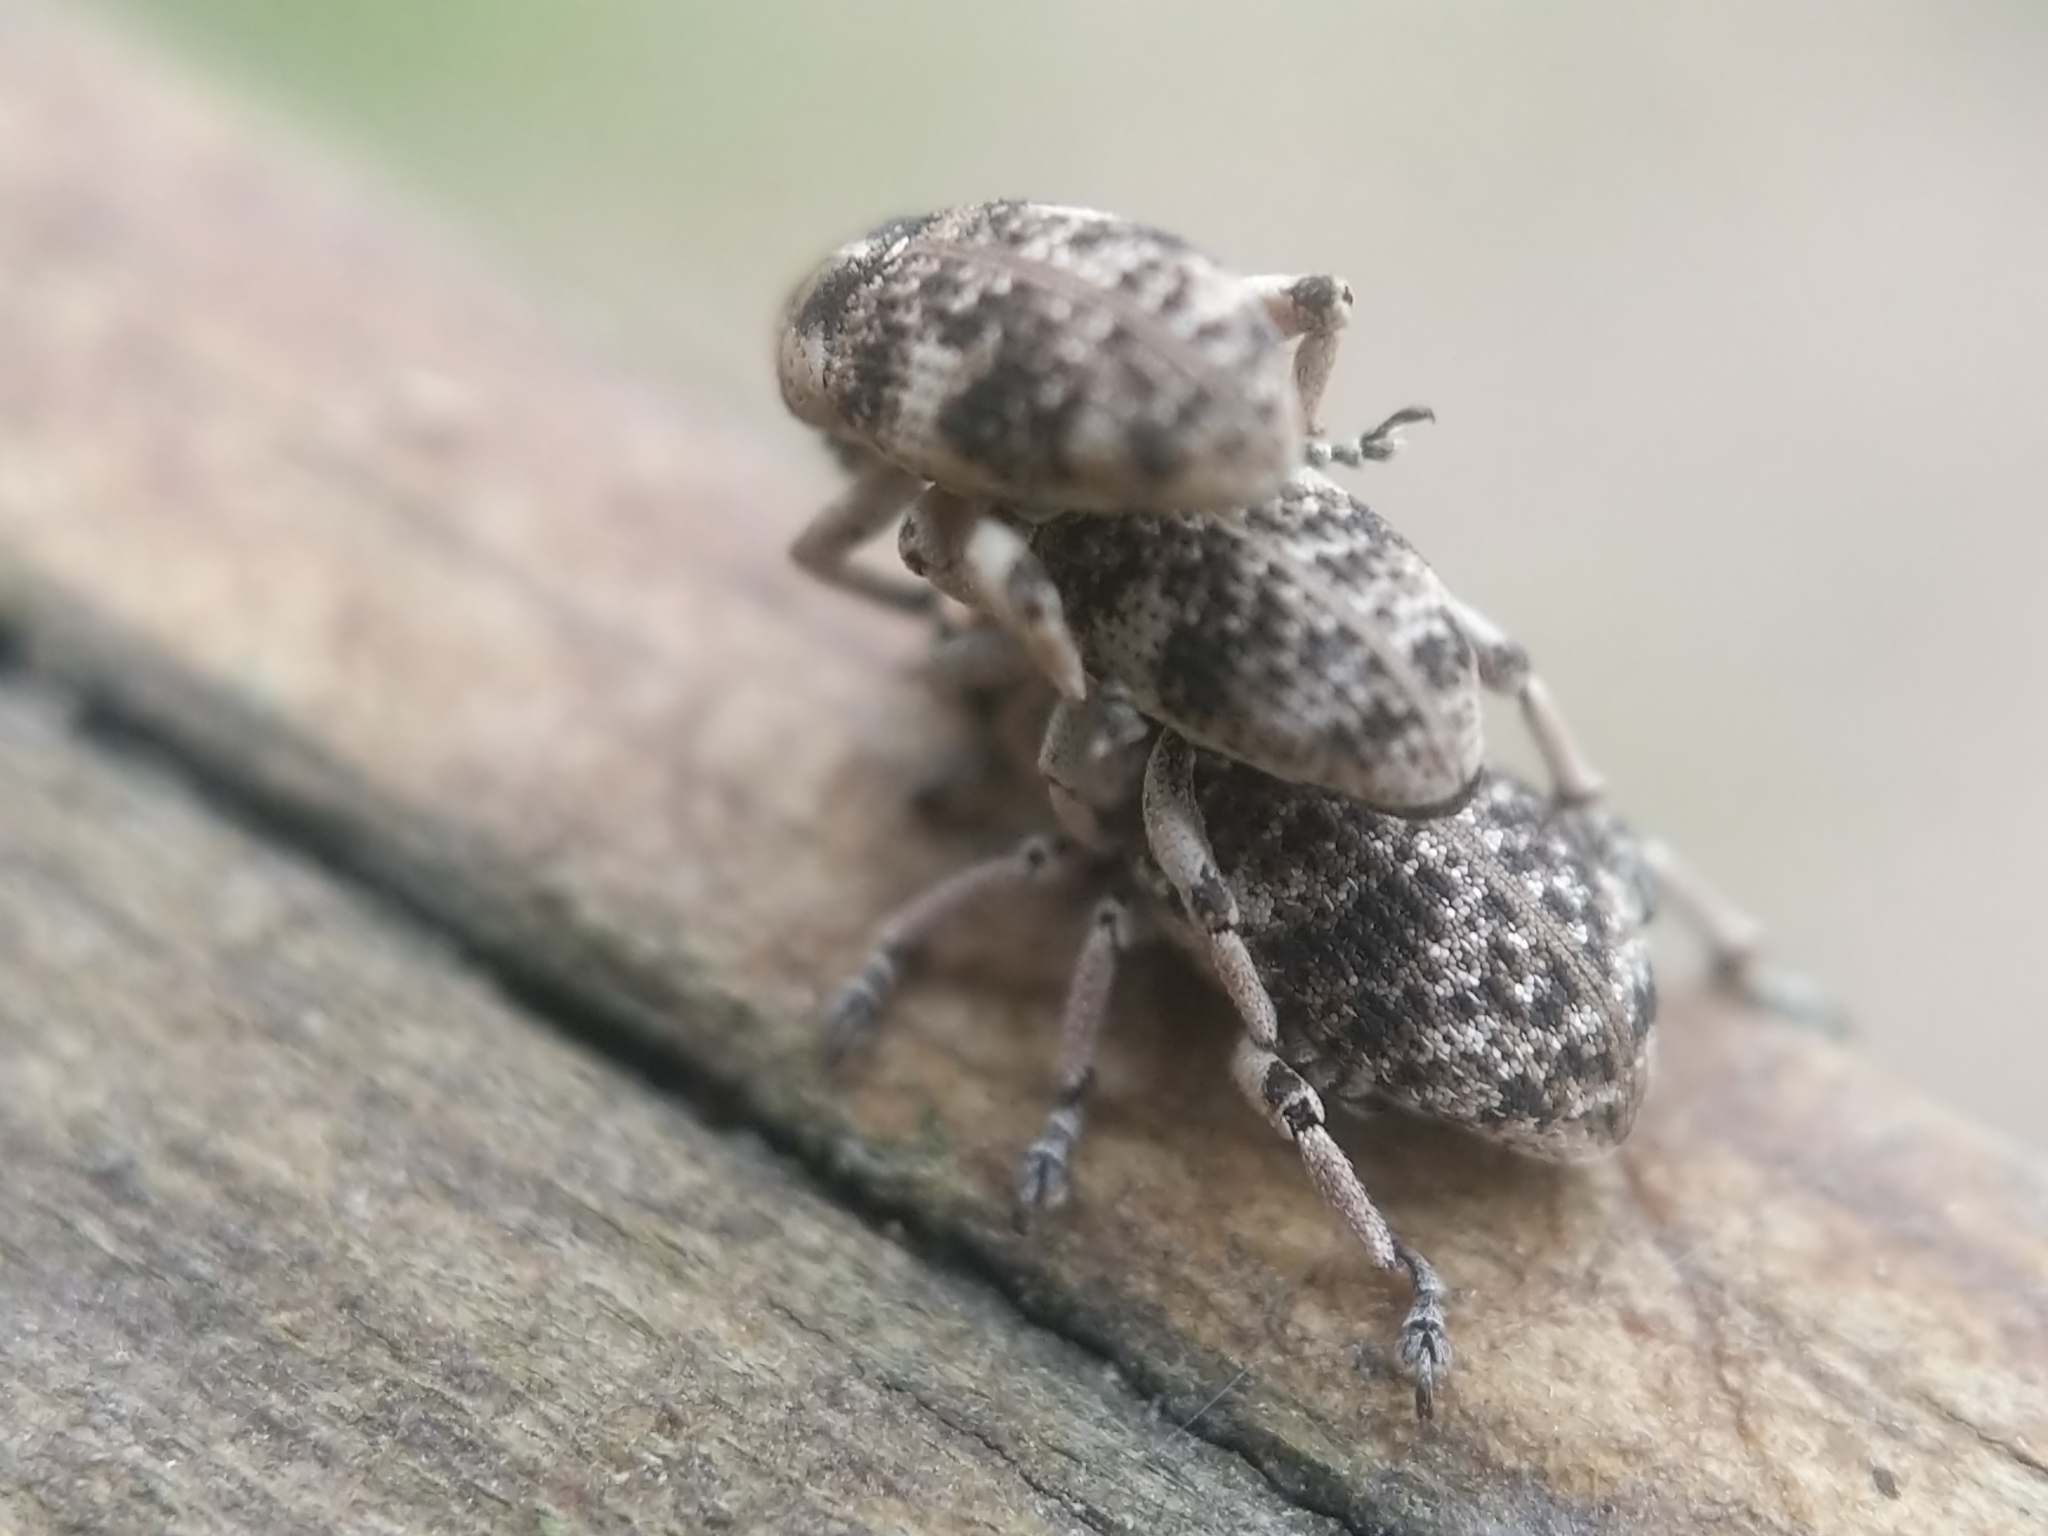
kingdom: Animalia
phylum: Arthropoda
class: Insecta
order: Coleoptera
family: Curculionidae
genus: Colecerus
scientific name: Colecerus marmoratus
